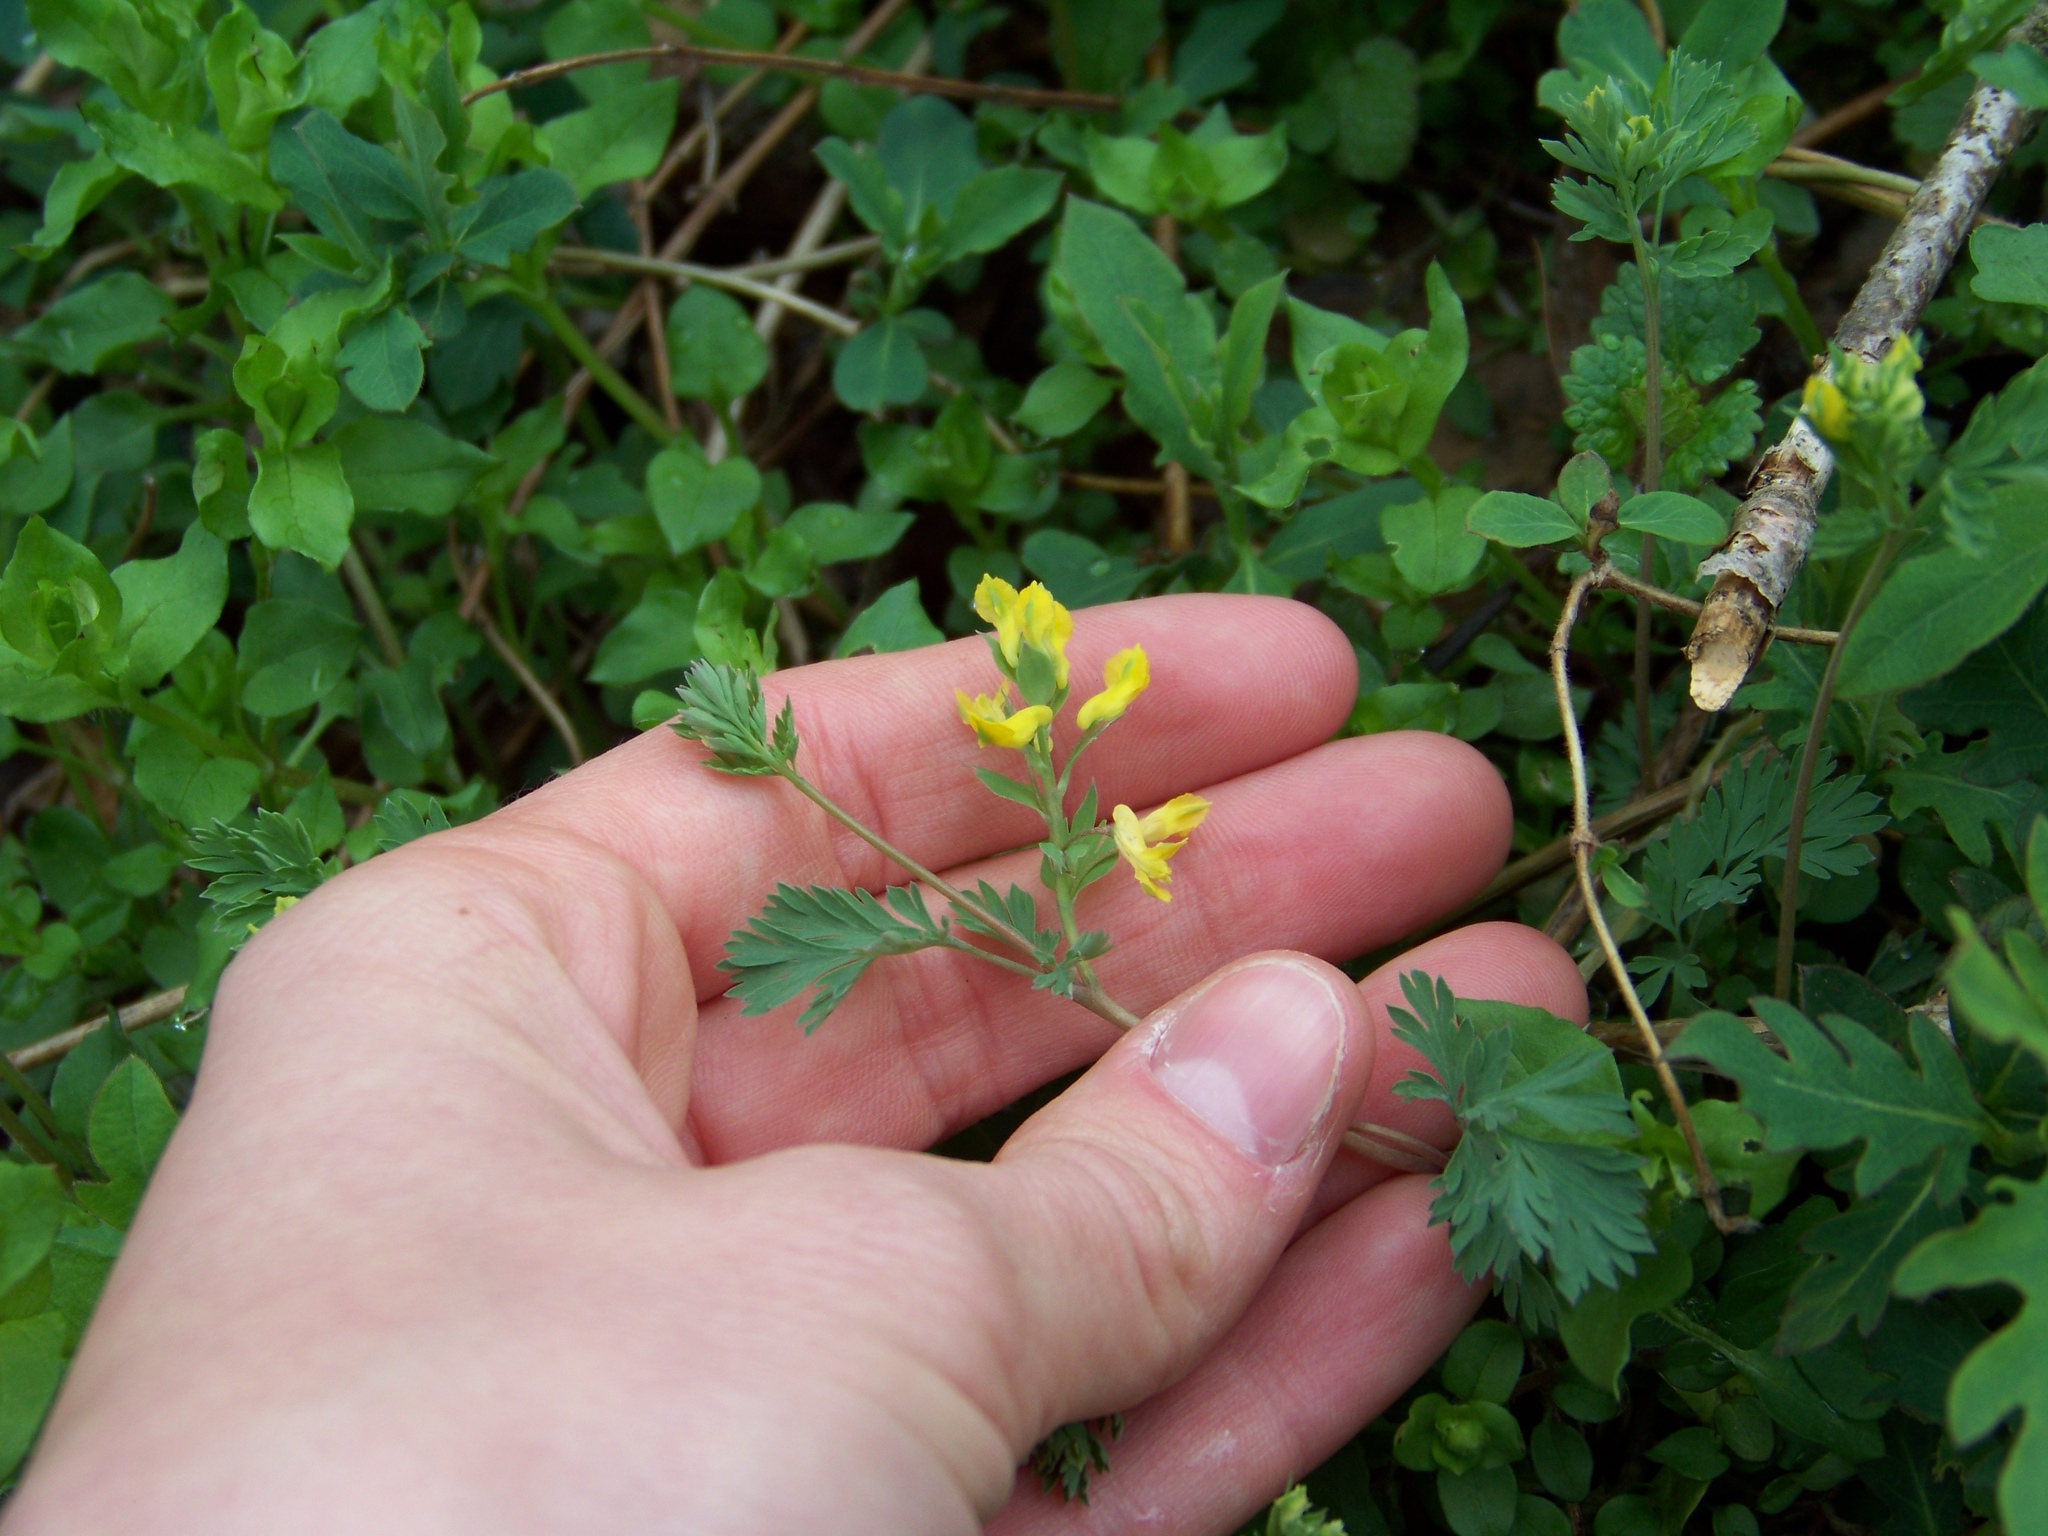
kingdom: Plantae
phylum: Tracheophyta
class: Magnoliopsida
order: Ranunculales
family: Papaveraceae
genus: Corydalis
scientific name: Corydalis flavula
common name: Yellow corydalis
